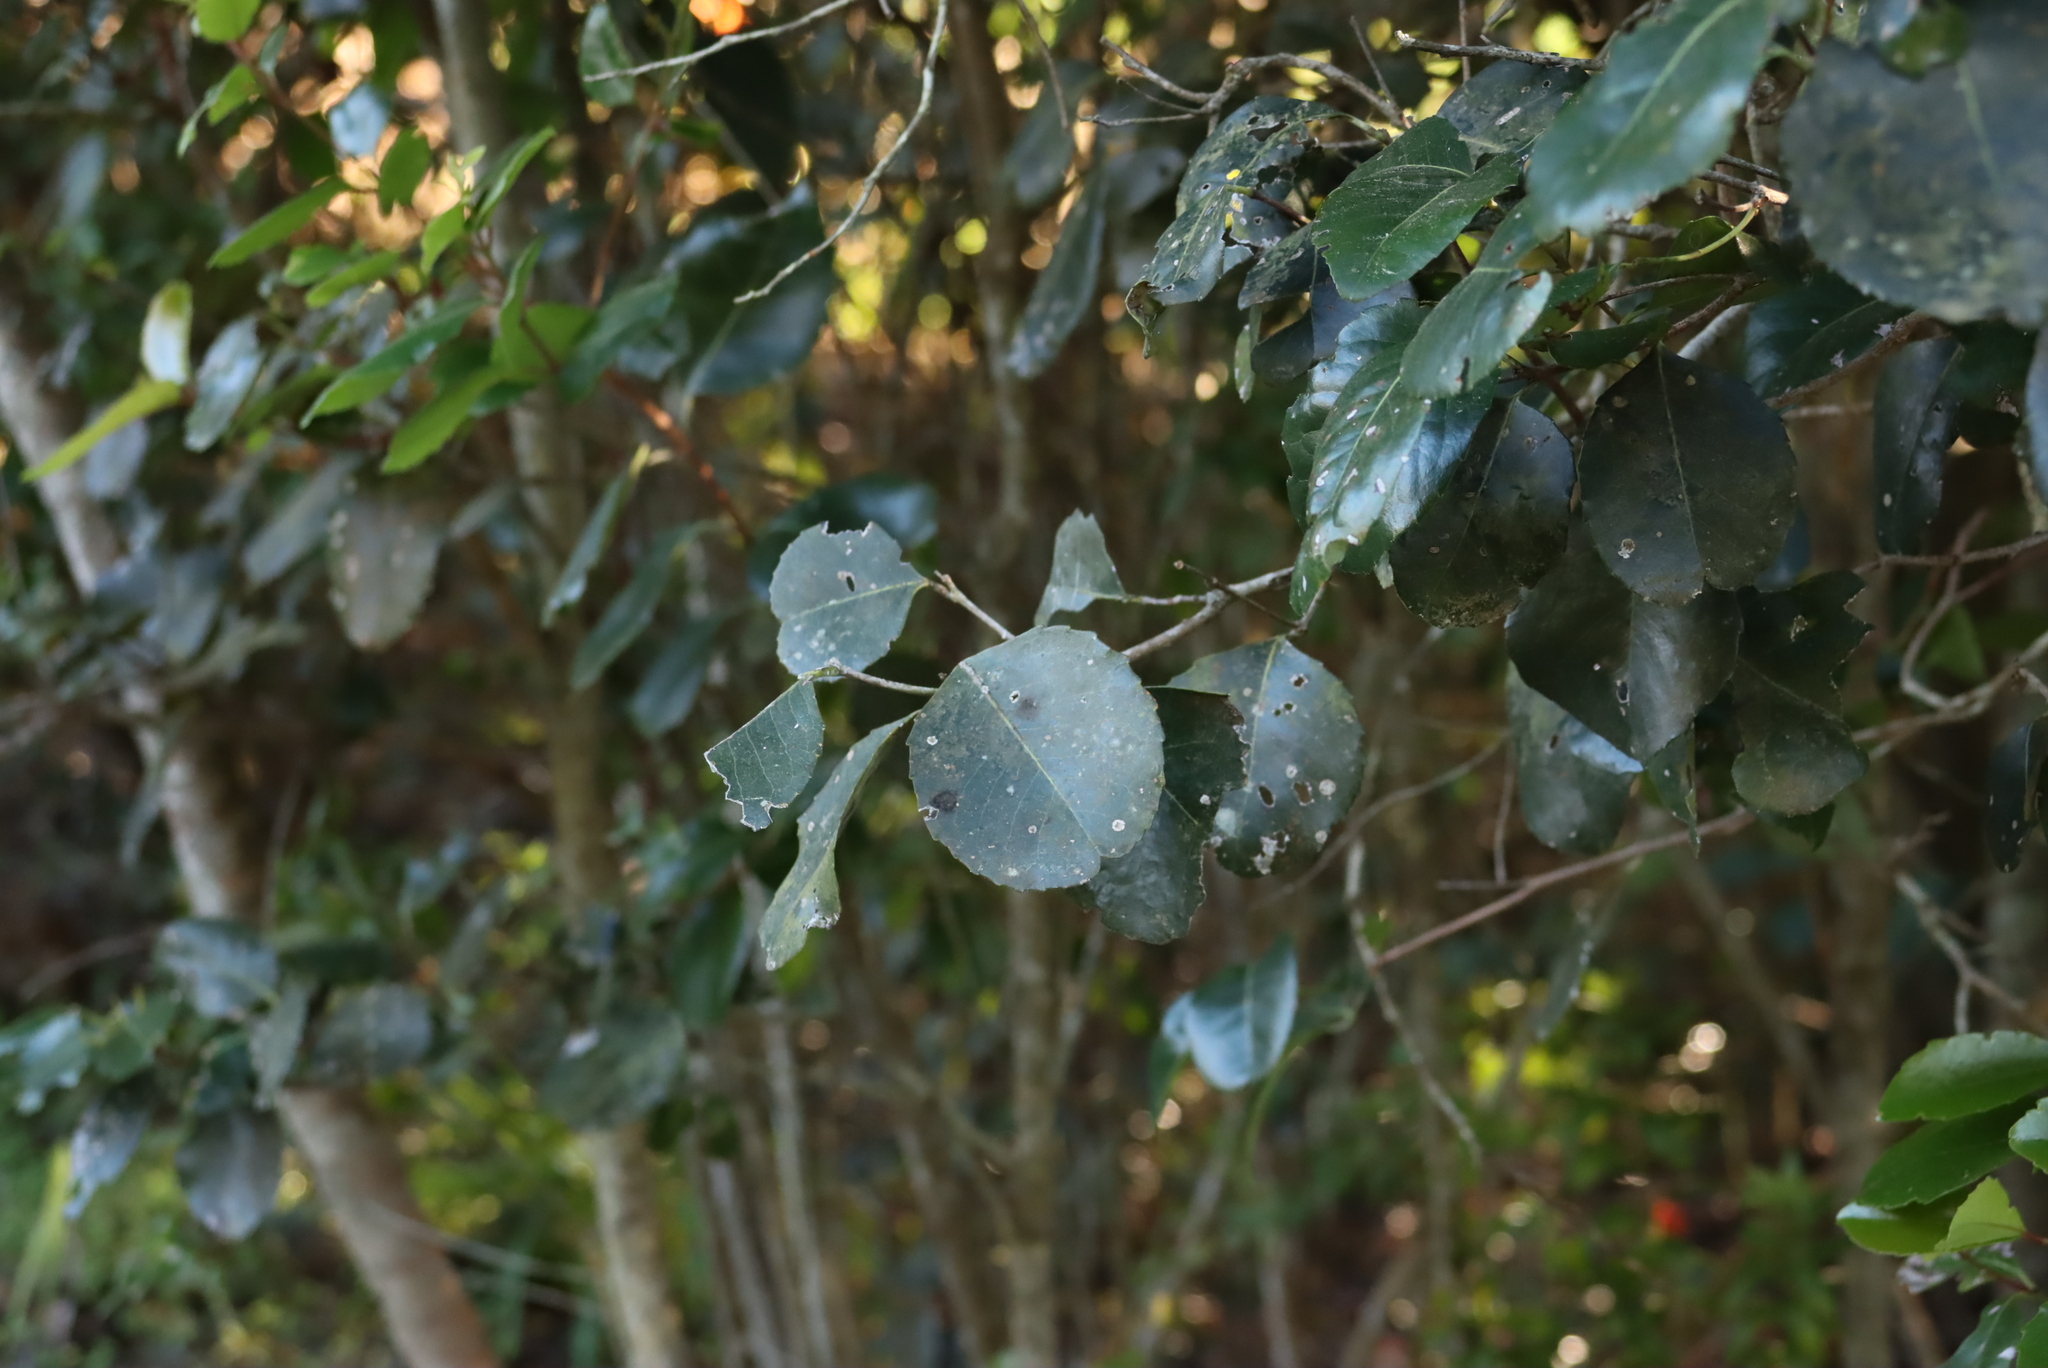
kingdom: Plantae
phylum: Tracheophyta
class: Magnoliopsida
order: Celastrales
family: Celastraceae
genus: Cassine
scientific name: Cassine peragua
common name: Cape saffron
